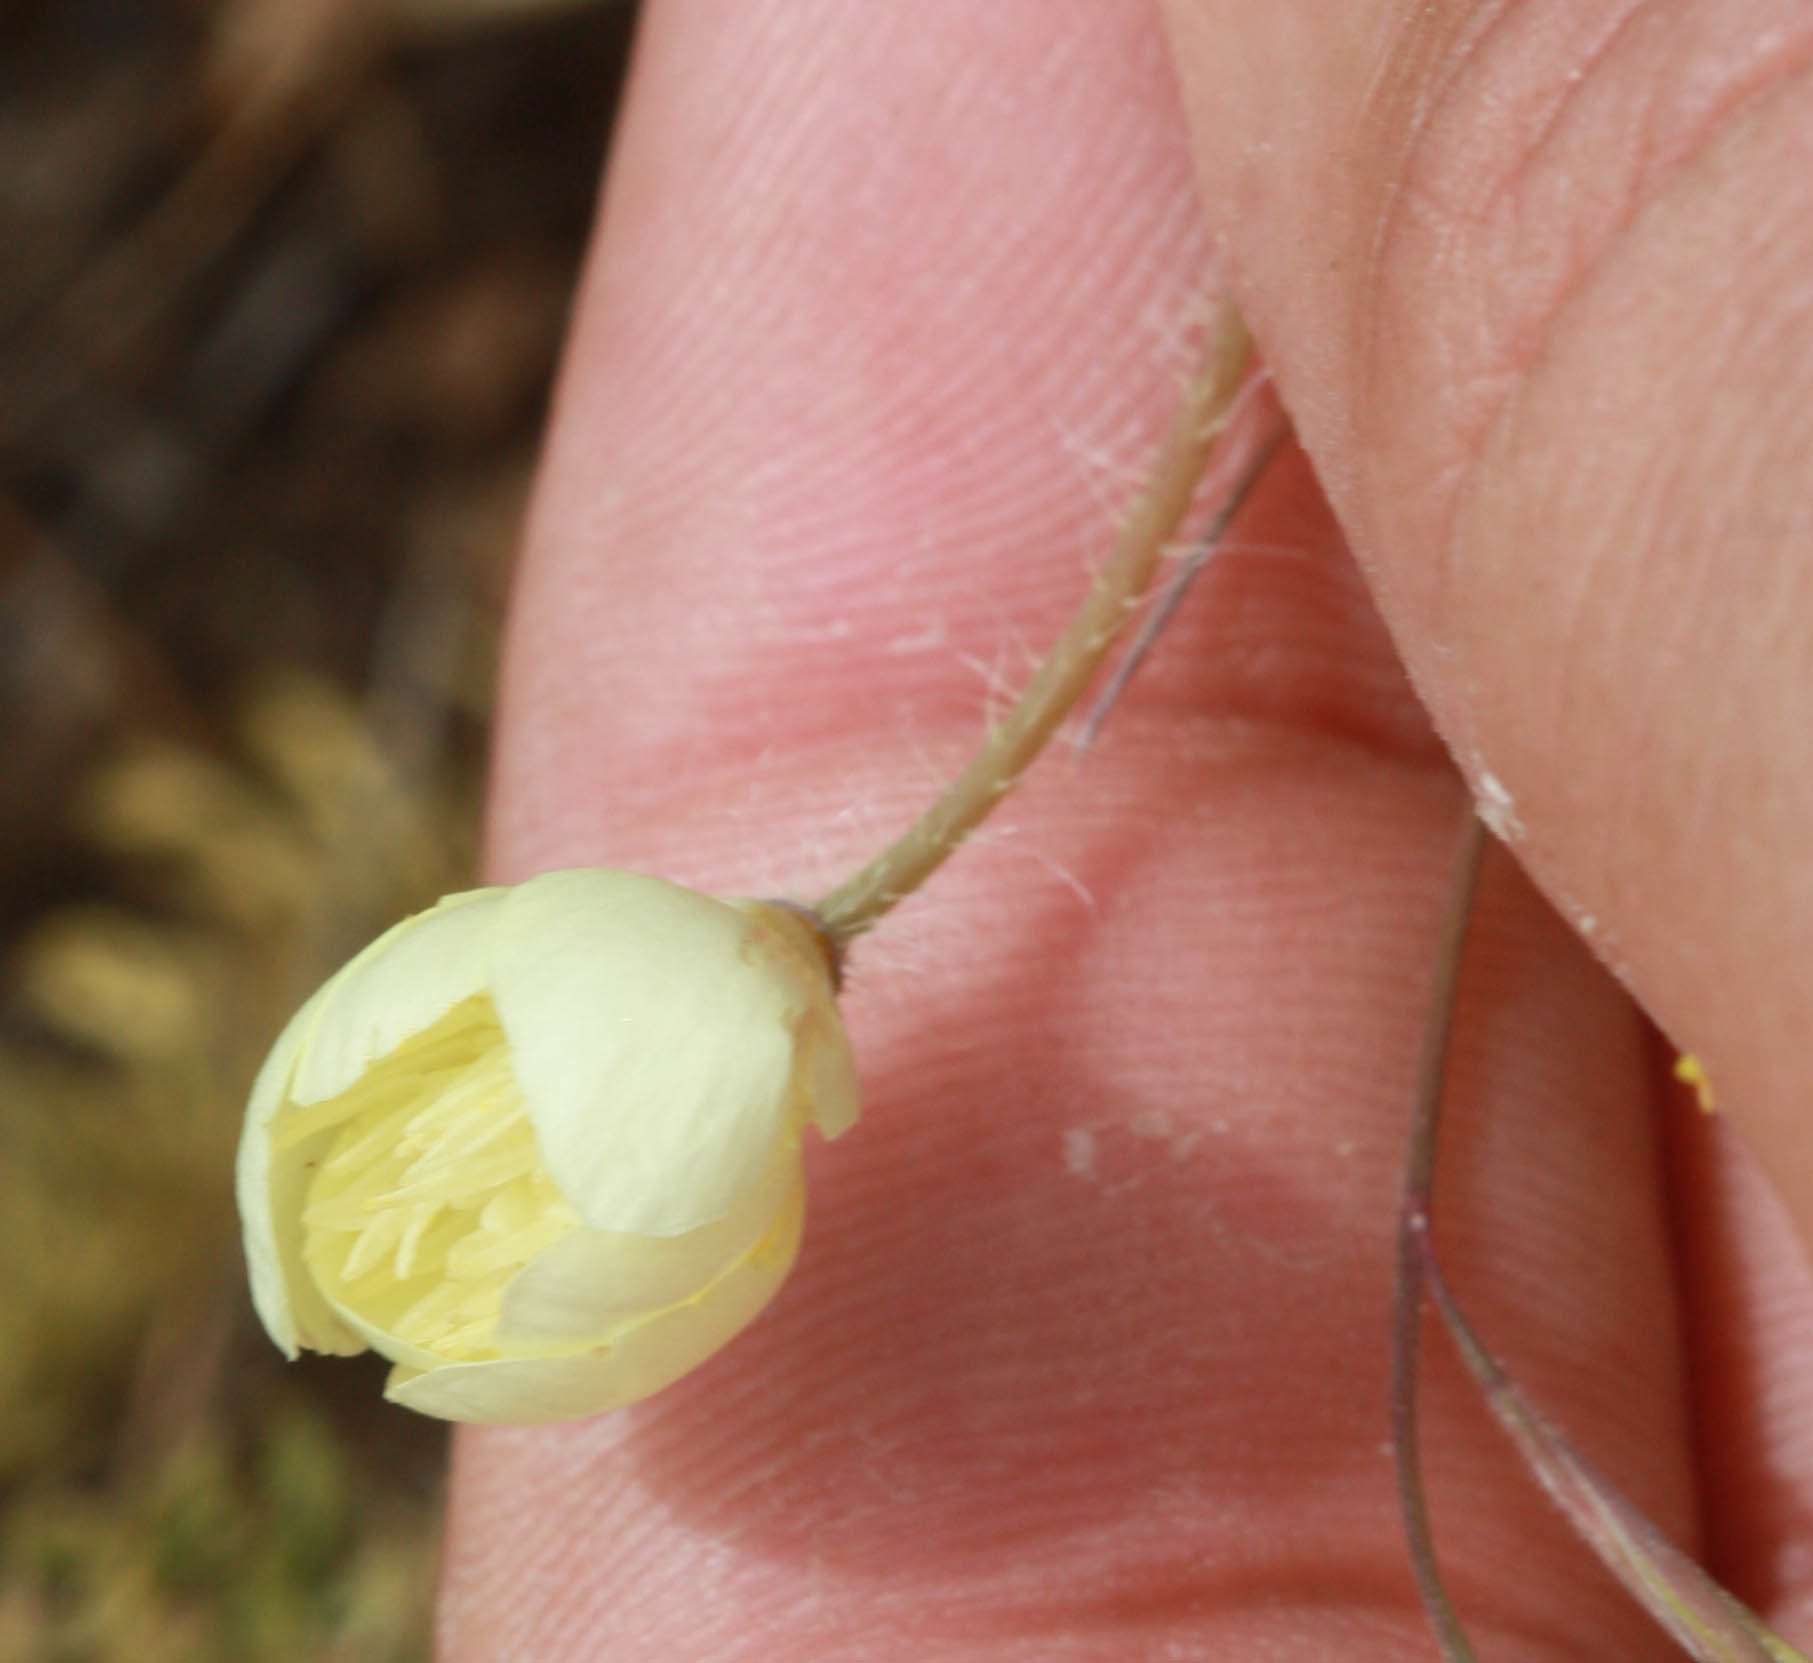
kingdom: Plantae
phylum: Tracheophyta
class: Magnoliopsida
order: Ranunculales
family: Papaveraceae
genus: Platystemon
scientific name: Platystemon californicus
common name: Cream-cups
